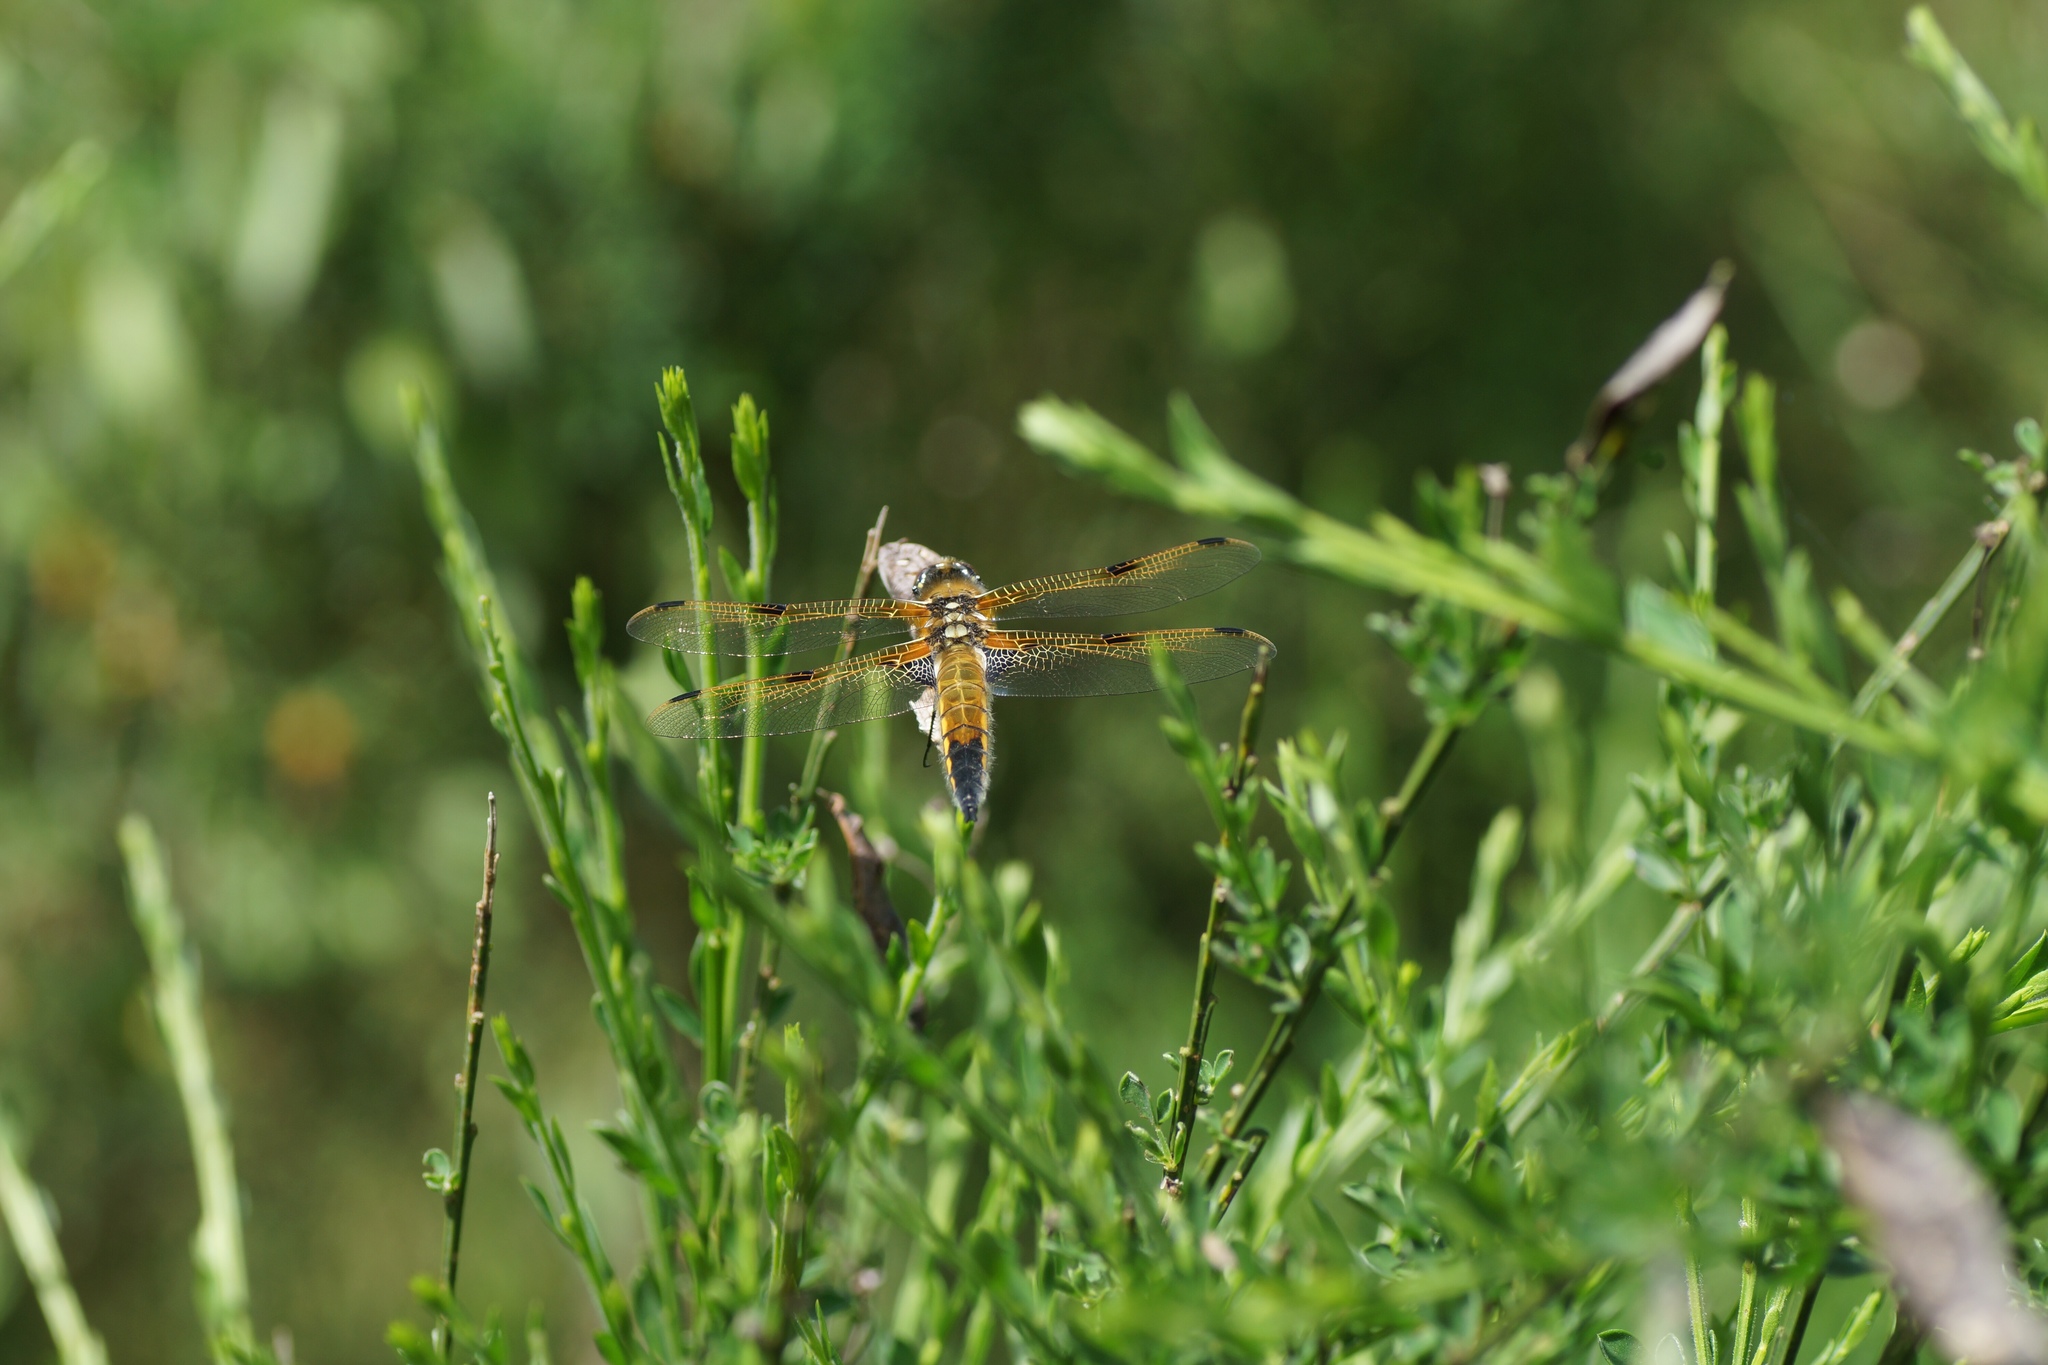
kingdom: Animalia
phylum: Arthropoda
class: Insecta
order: Odonata
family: Libellulidae
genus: Libellula
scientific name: Libellula quadrimaculata
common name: Four-spotted chaser
